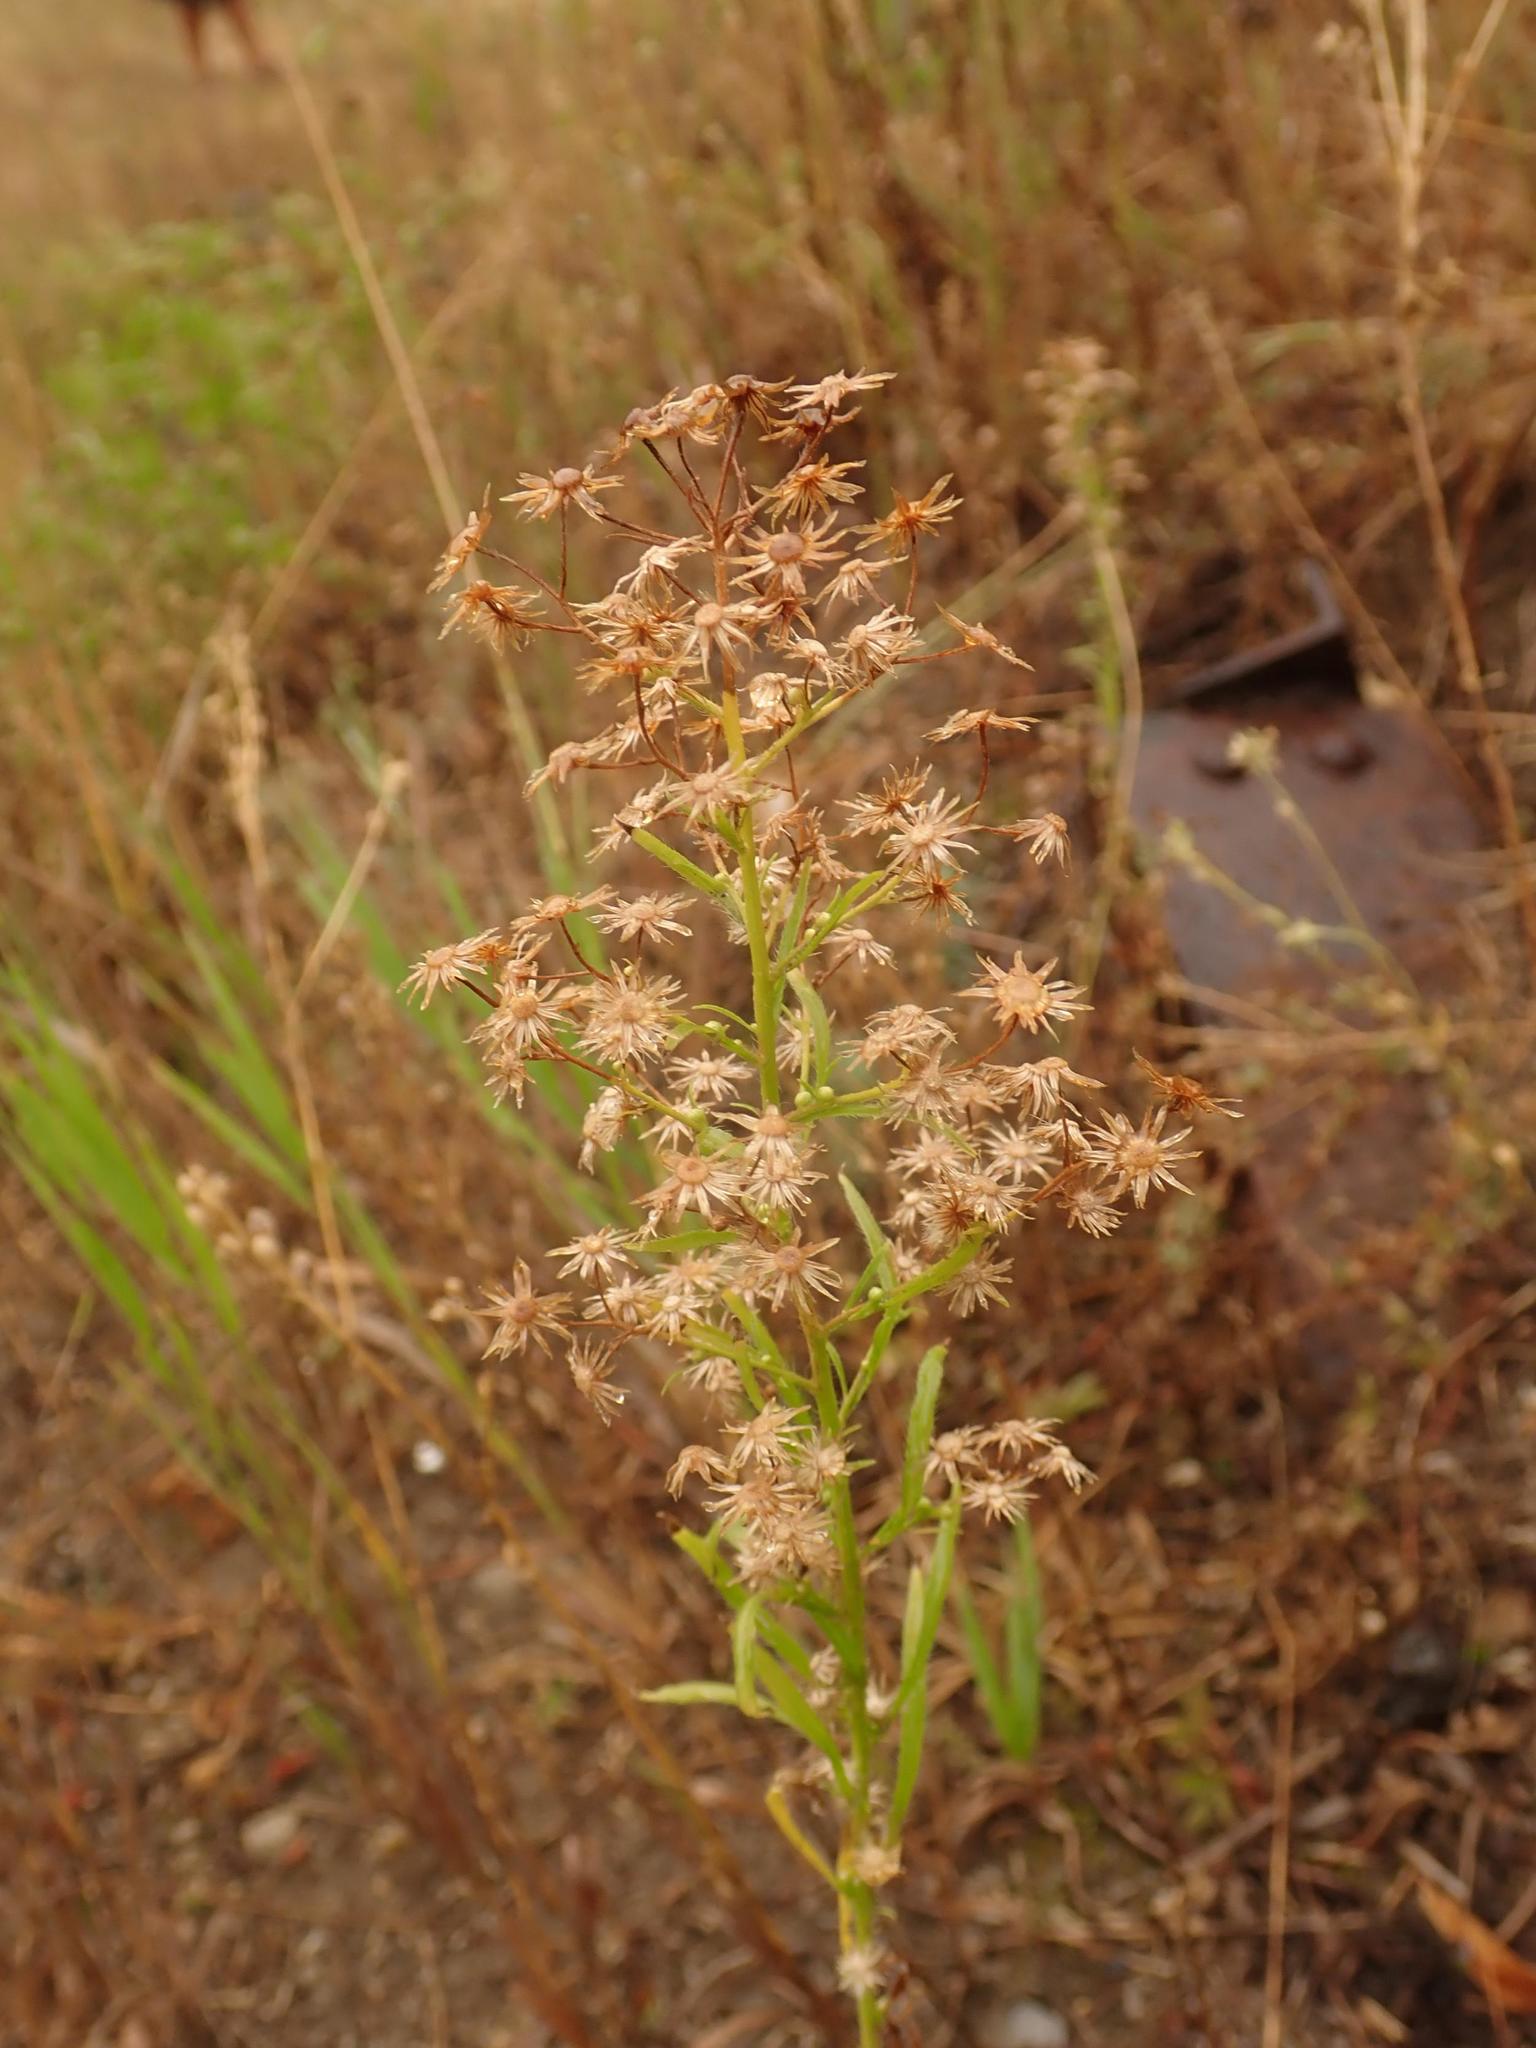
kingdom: Plantae
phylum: Tracheophyta
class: Magnoliopsida
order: Asterales
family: Asteraceae
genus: Erigeron
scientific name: Erigeron canadensis
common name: Canadian fleabane
